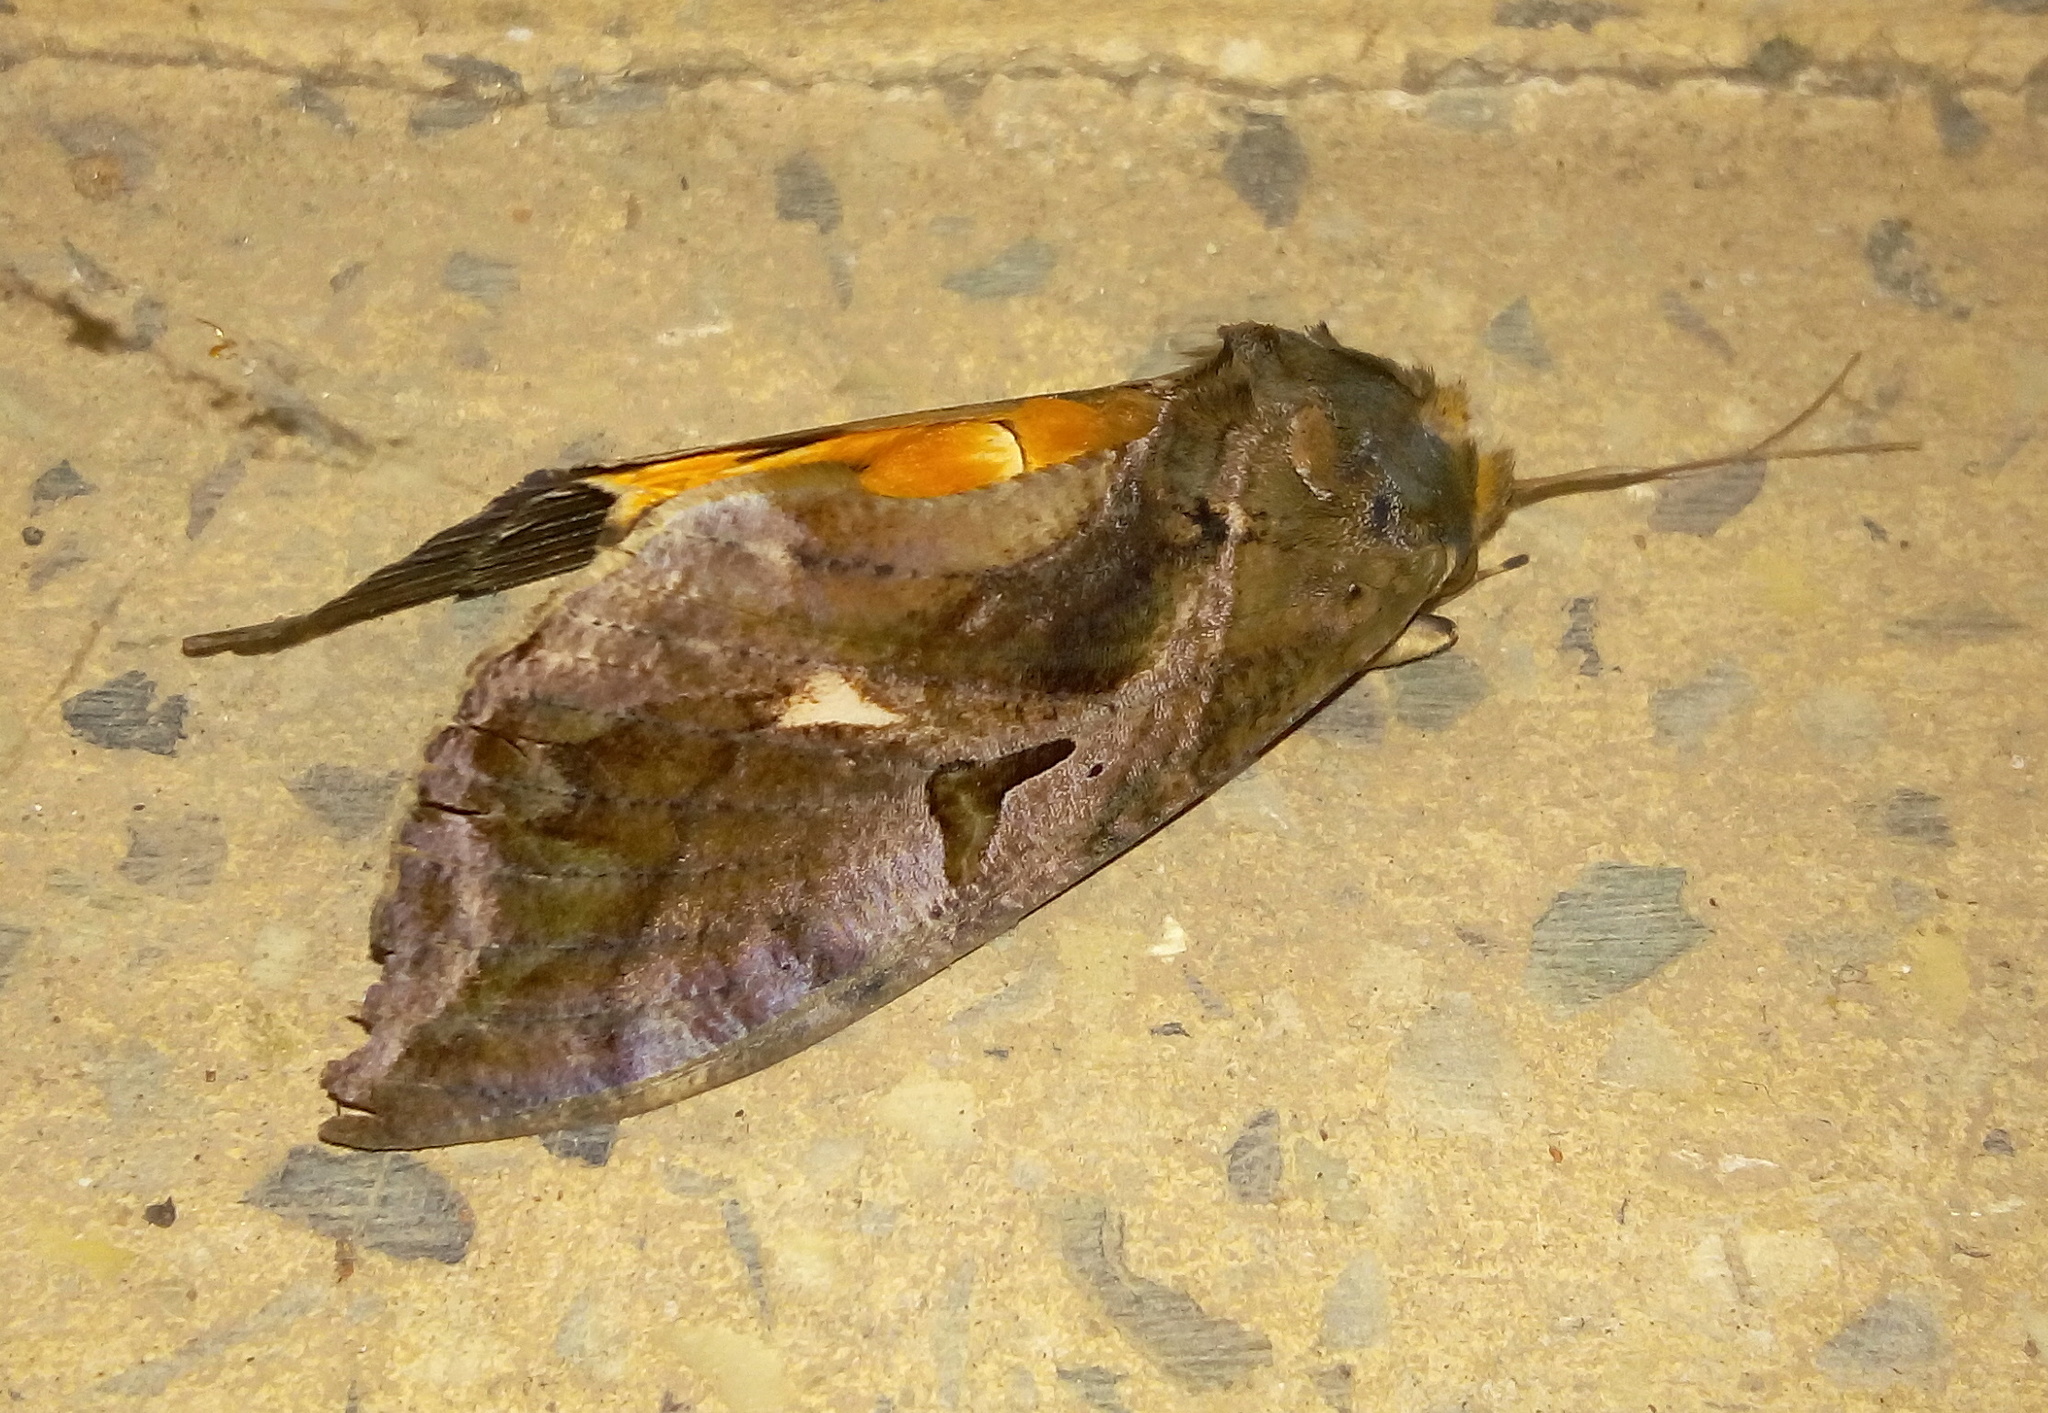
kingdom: Animalia
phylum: Arthropoda
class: Insecta
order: Lepidoptera
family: Erebidae
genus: Eudocima
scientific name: Eudocima phalonia
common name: Wasp
